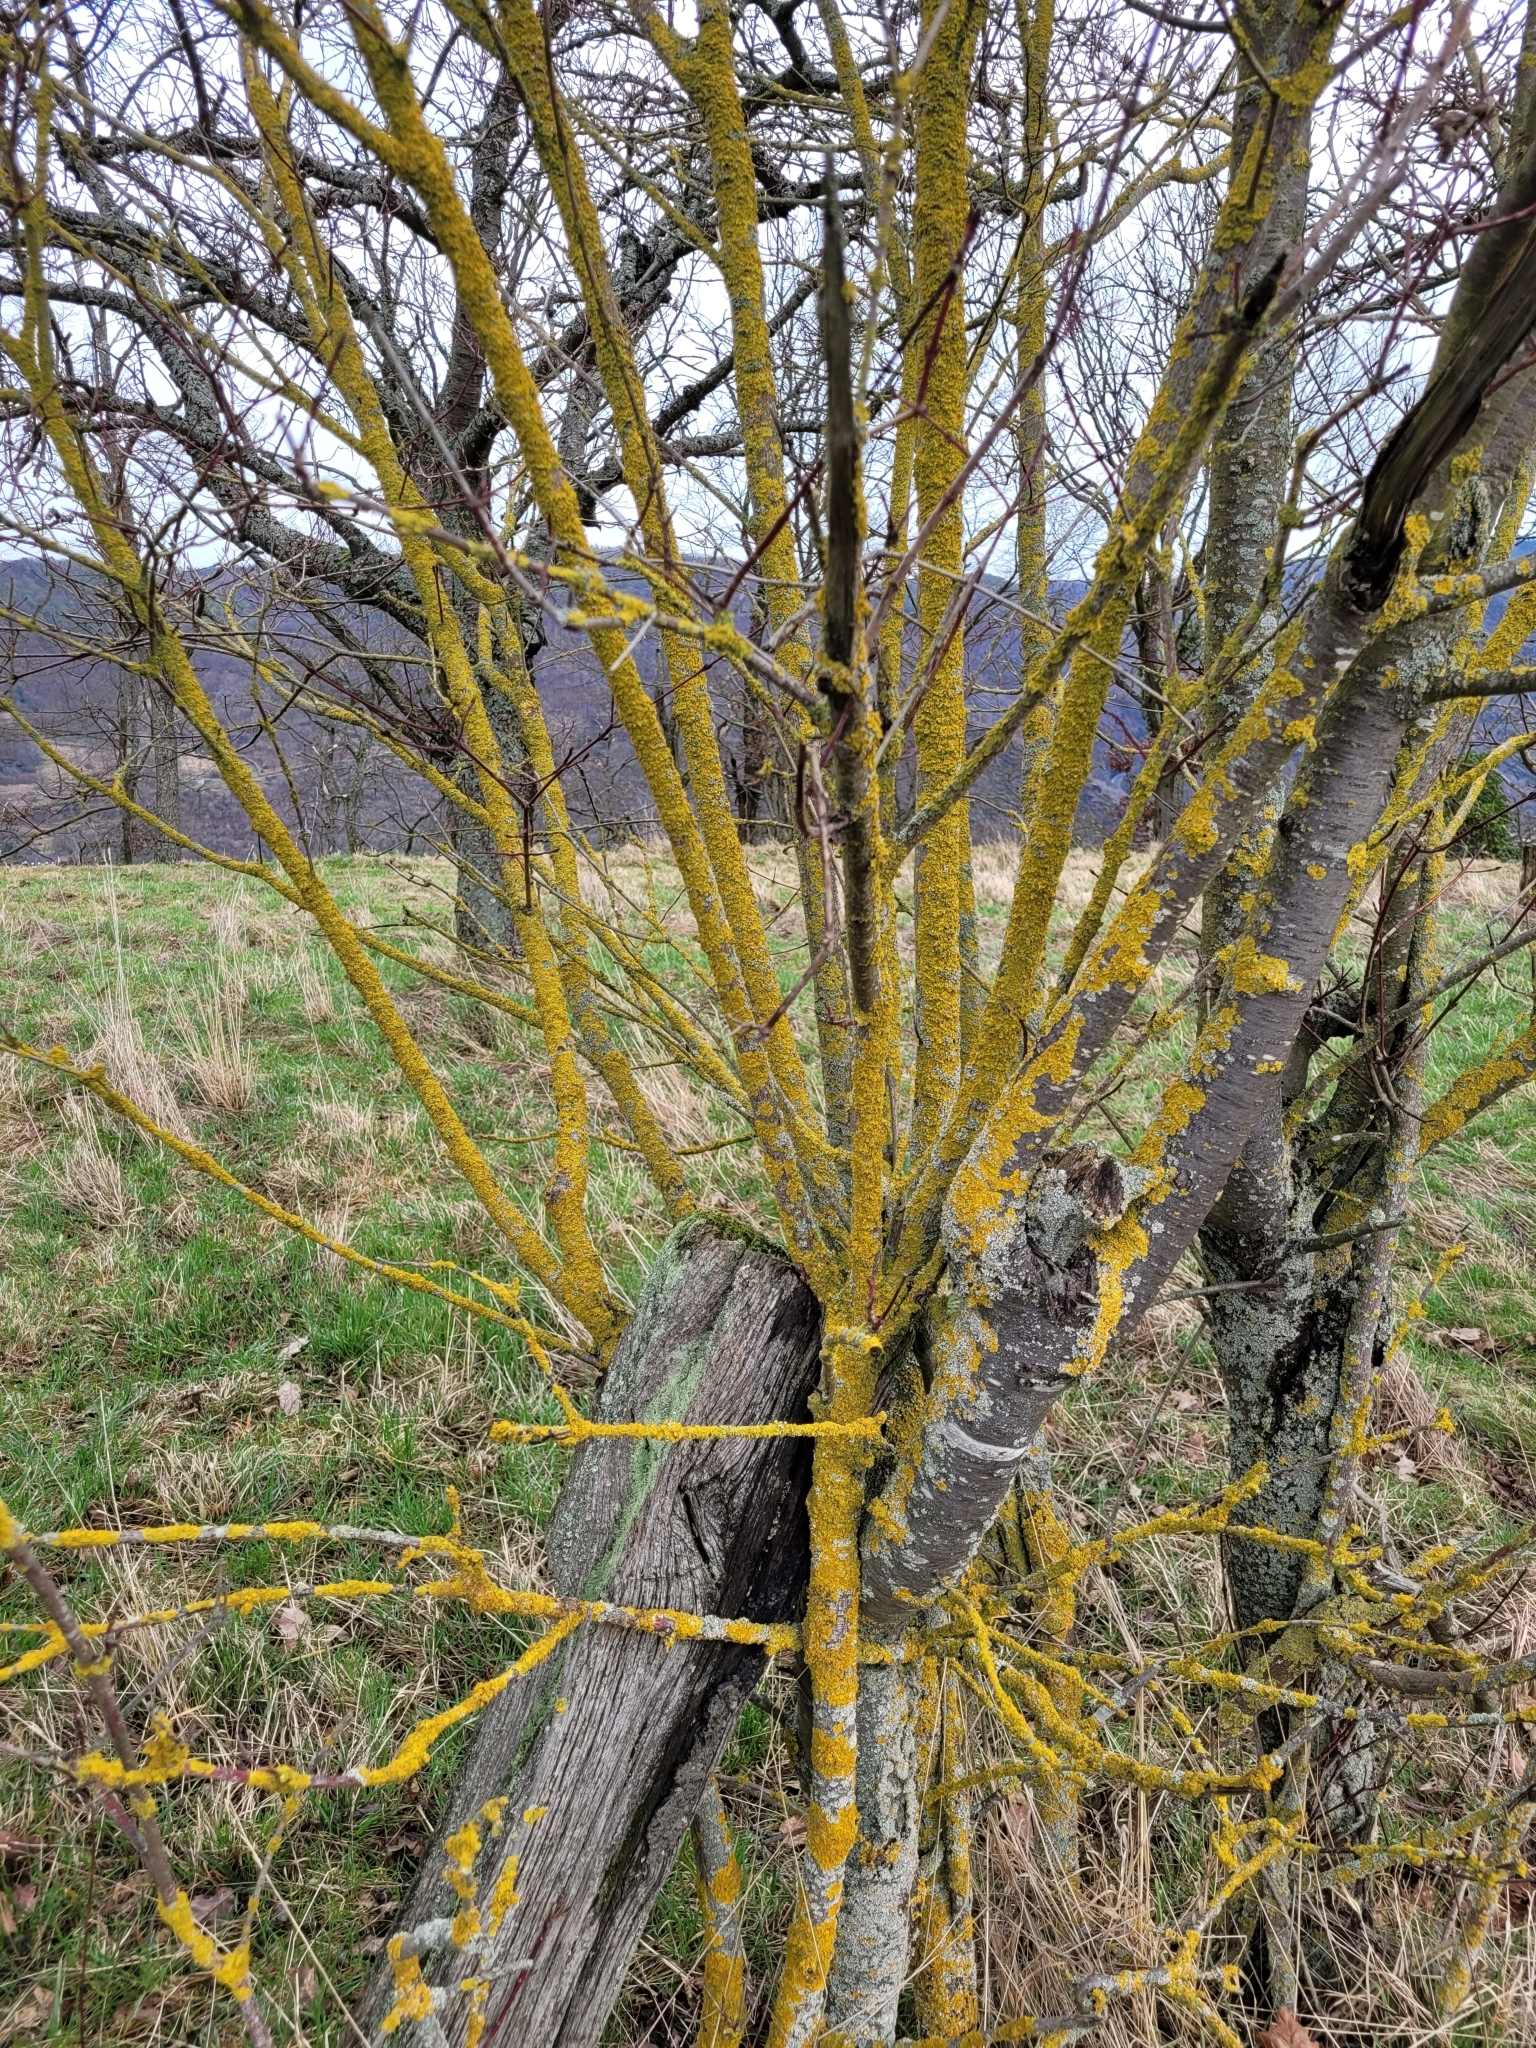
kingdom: Fungi
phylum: Ascomycota
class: Lecanoromycetes
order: Teloschistales
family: Teloschistaceae
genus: Xanthoria
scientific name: Xanthoria parietina
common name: Common orange lichen
